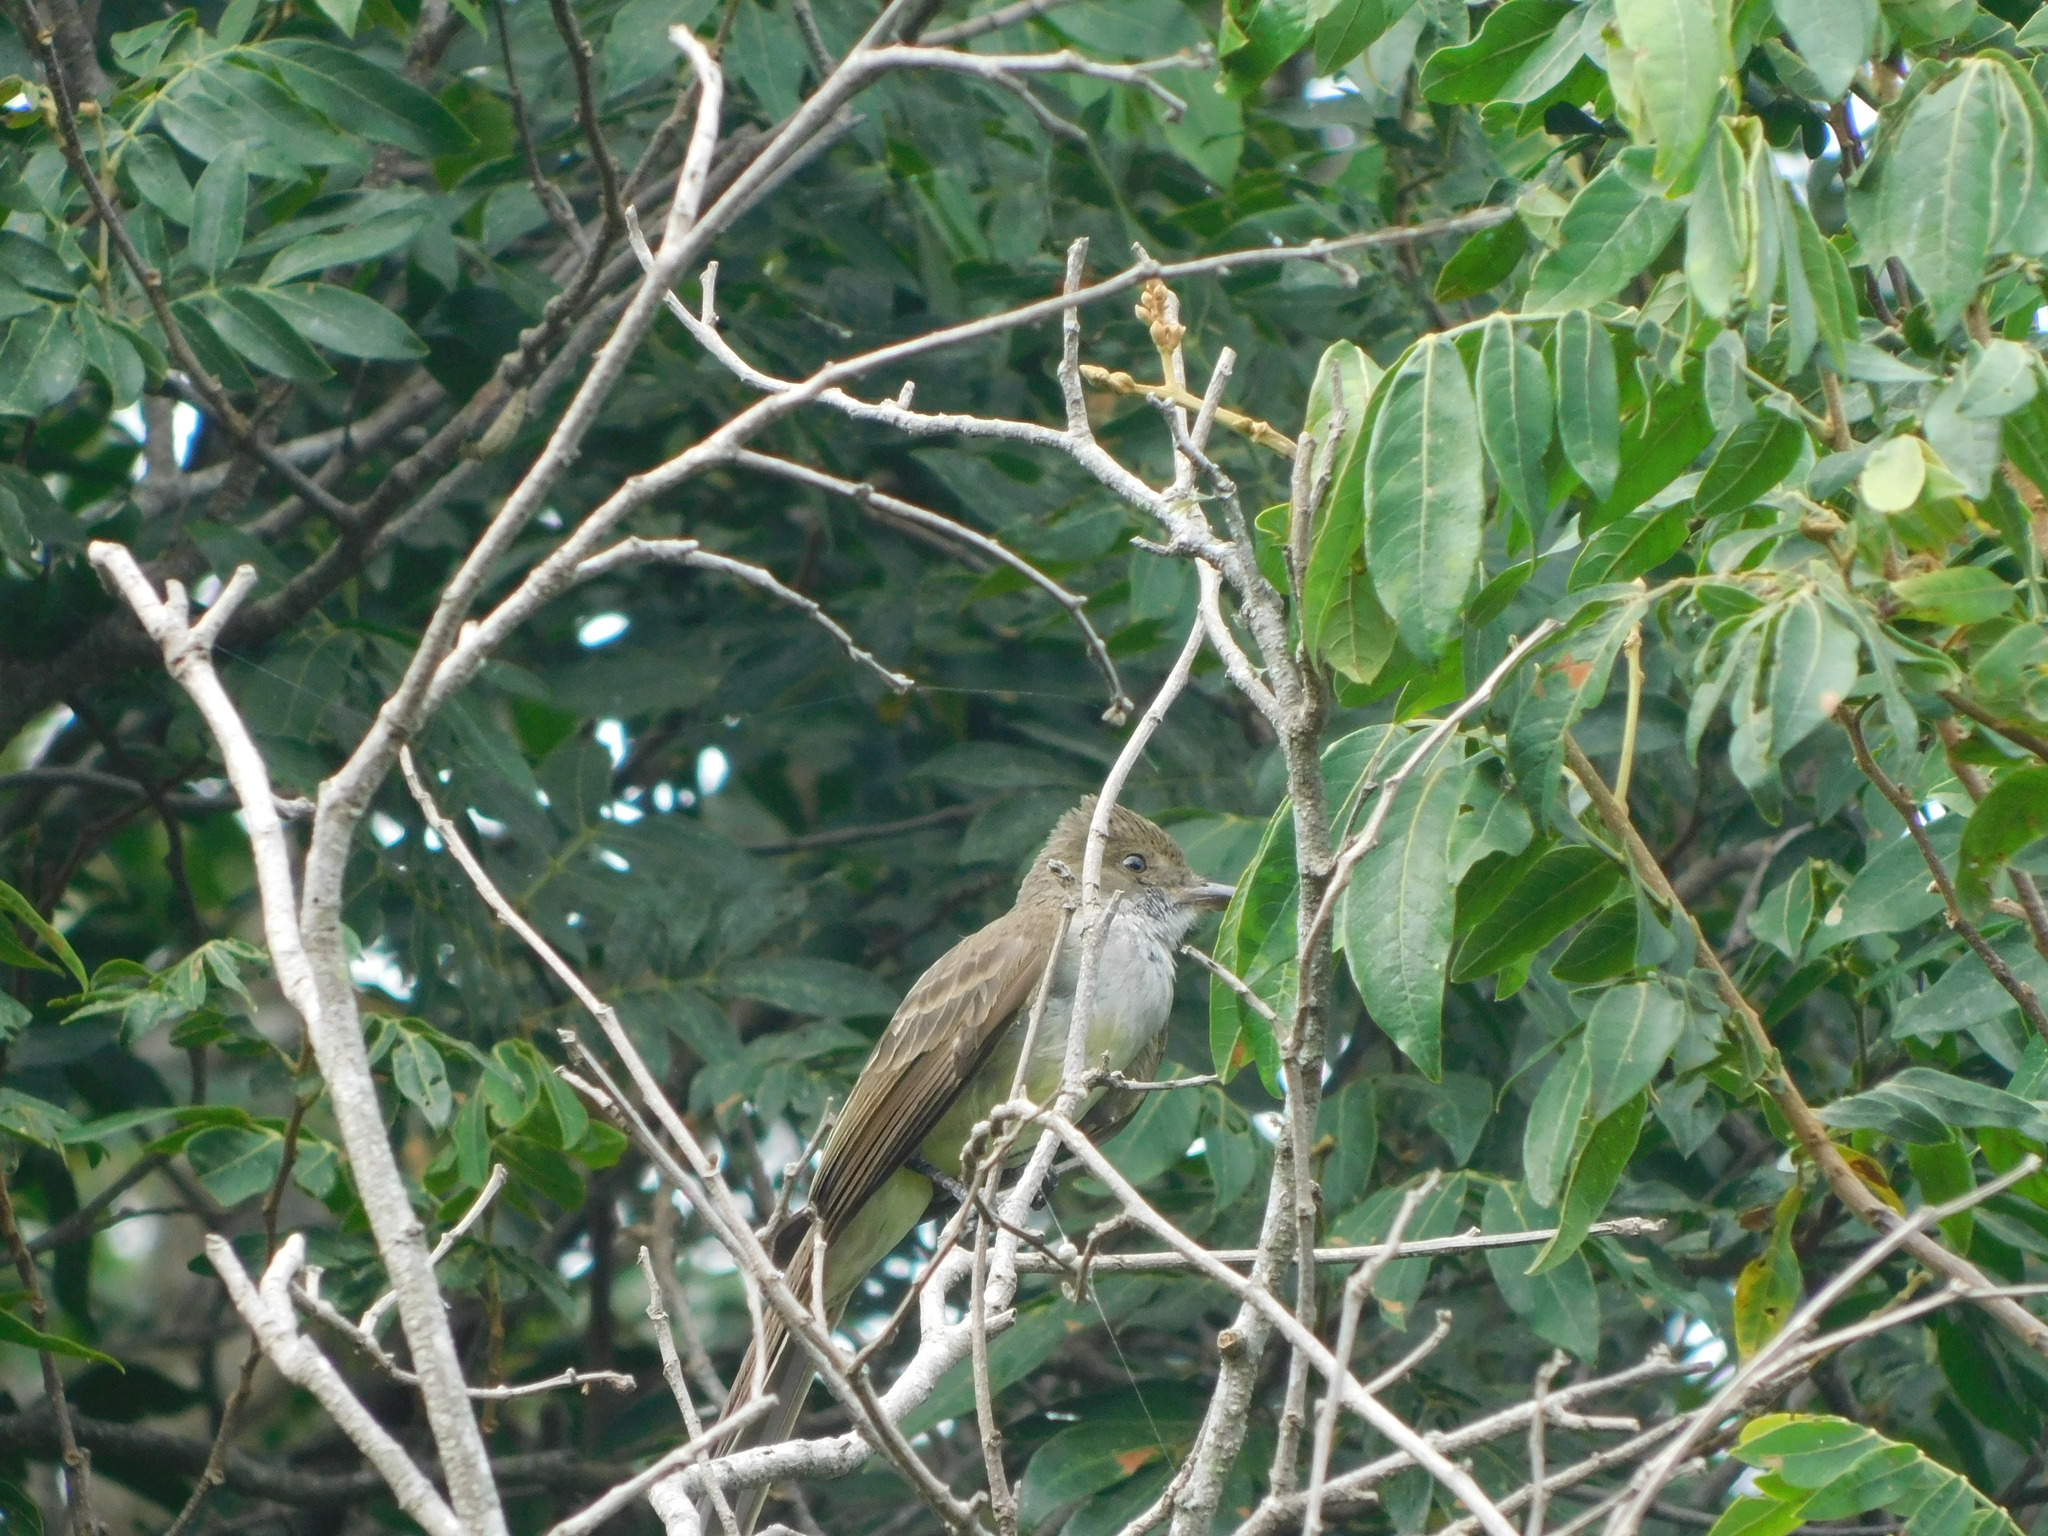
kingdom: Animalia
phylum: Chordata
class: Aves
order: Passeriformes
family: Tyrannidae
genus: Myiarchus
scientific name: Myiarchus swainsoni
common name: Swainson's flycatcher
